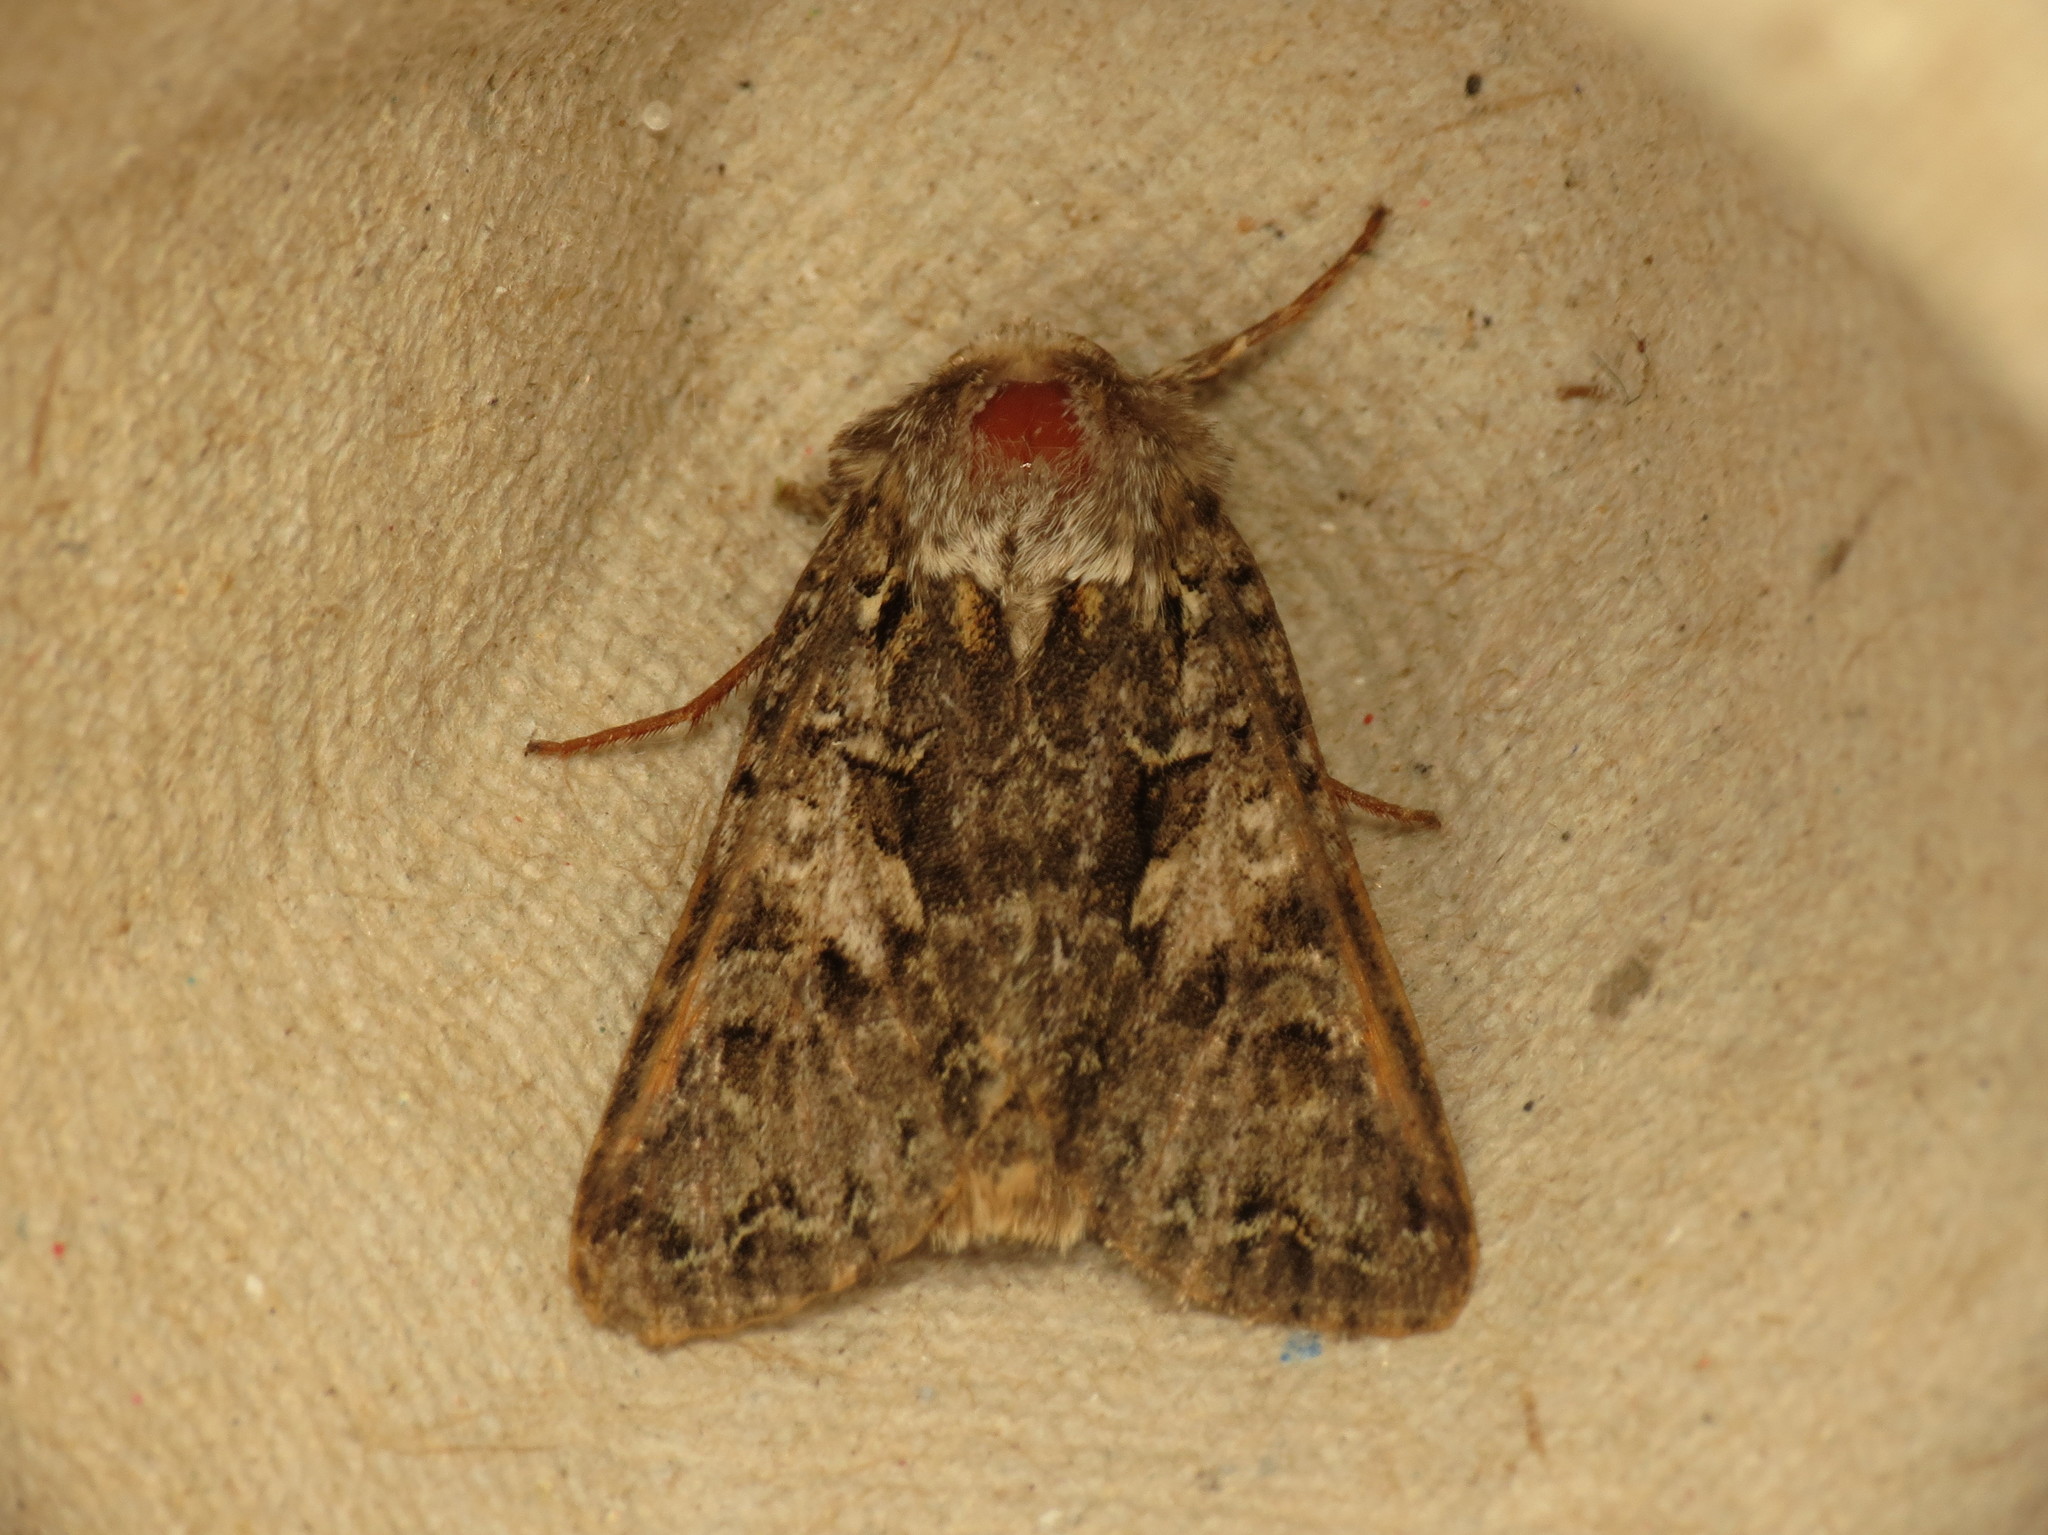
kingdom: Animalia
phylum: Arthropoda
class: Insecta
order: Lepidoptera
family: Noctuidae
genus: Hada
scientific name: Hada plebeja
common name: Shears
